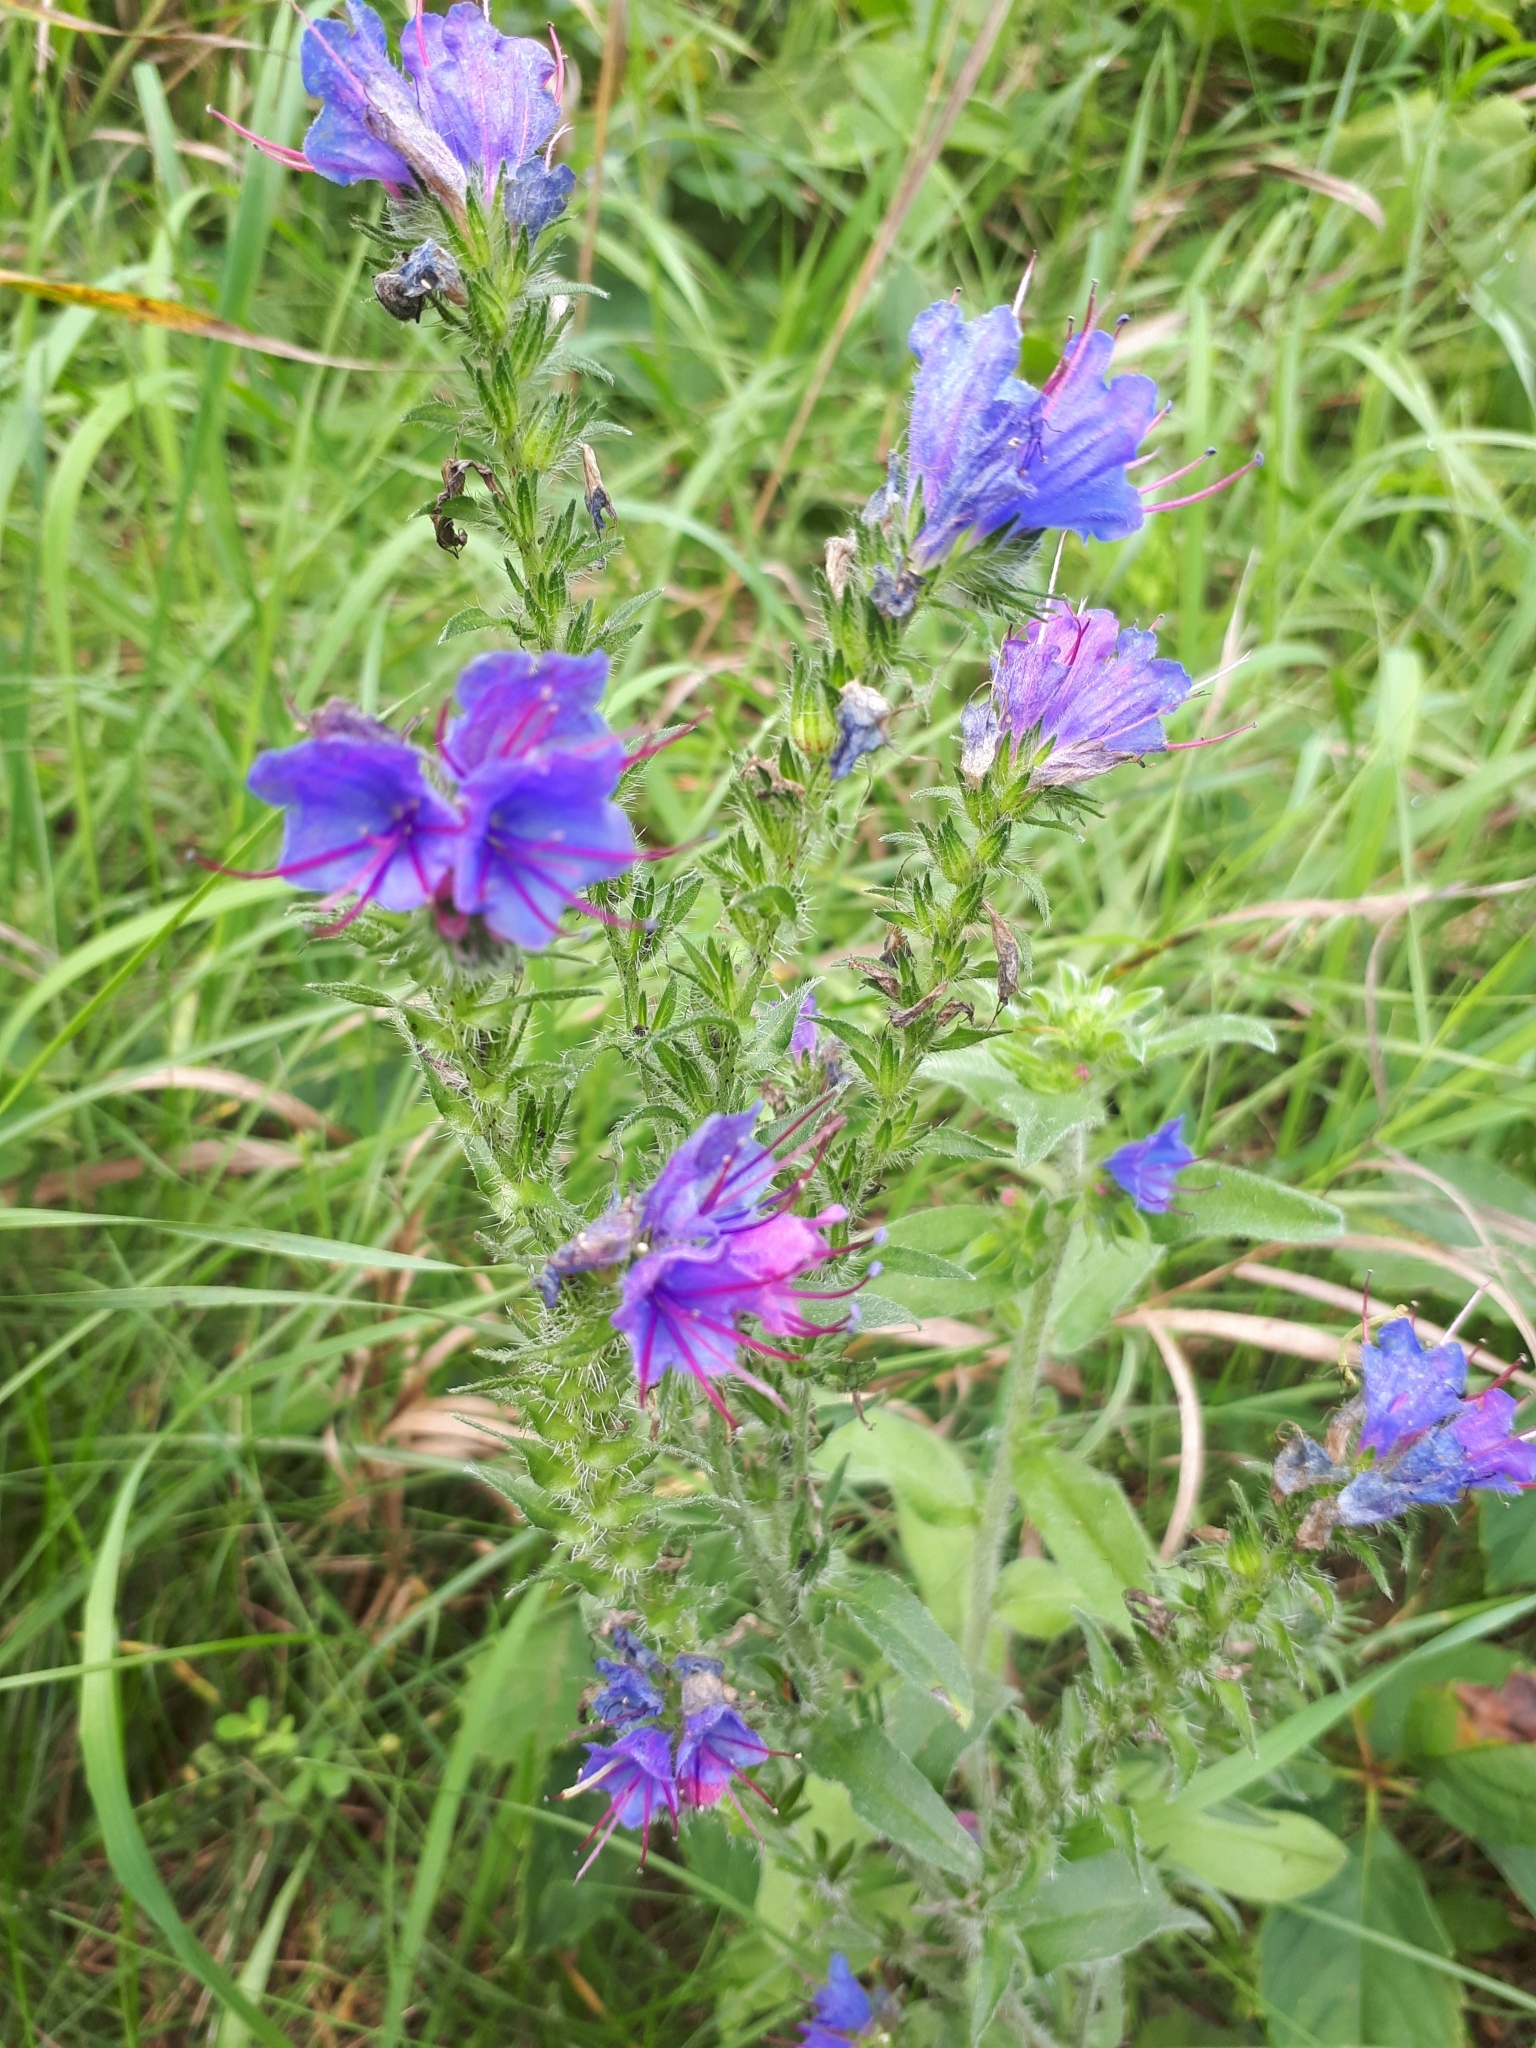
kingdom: Plantae
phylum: Tracheophyta
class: Magnoliopsida
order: Boraginales
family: Boraginaceae
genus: Echium
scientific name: Echium vulgare
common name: Common viper's bugloss
